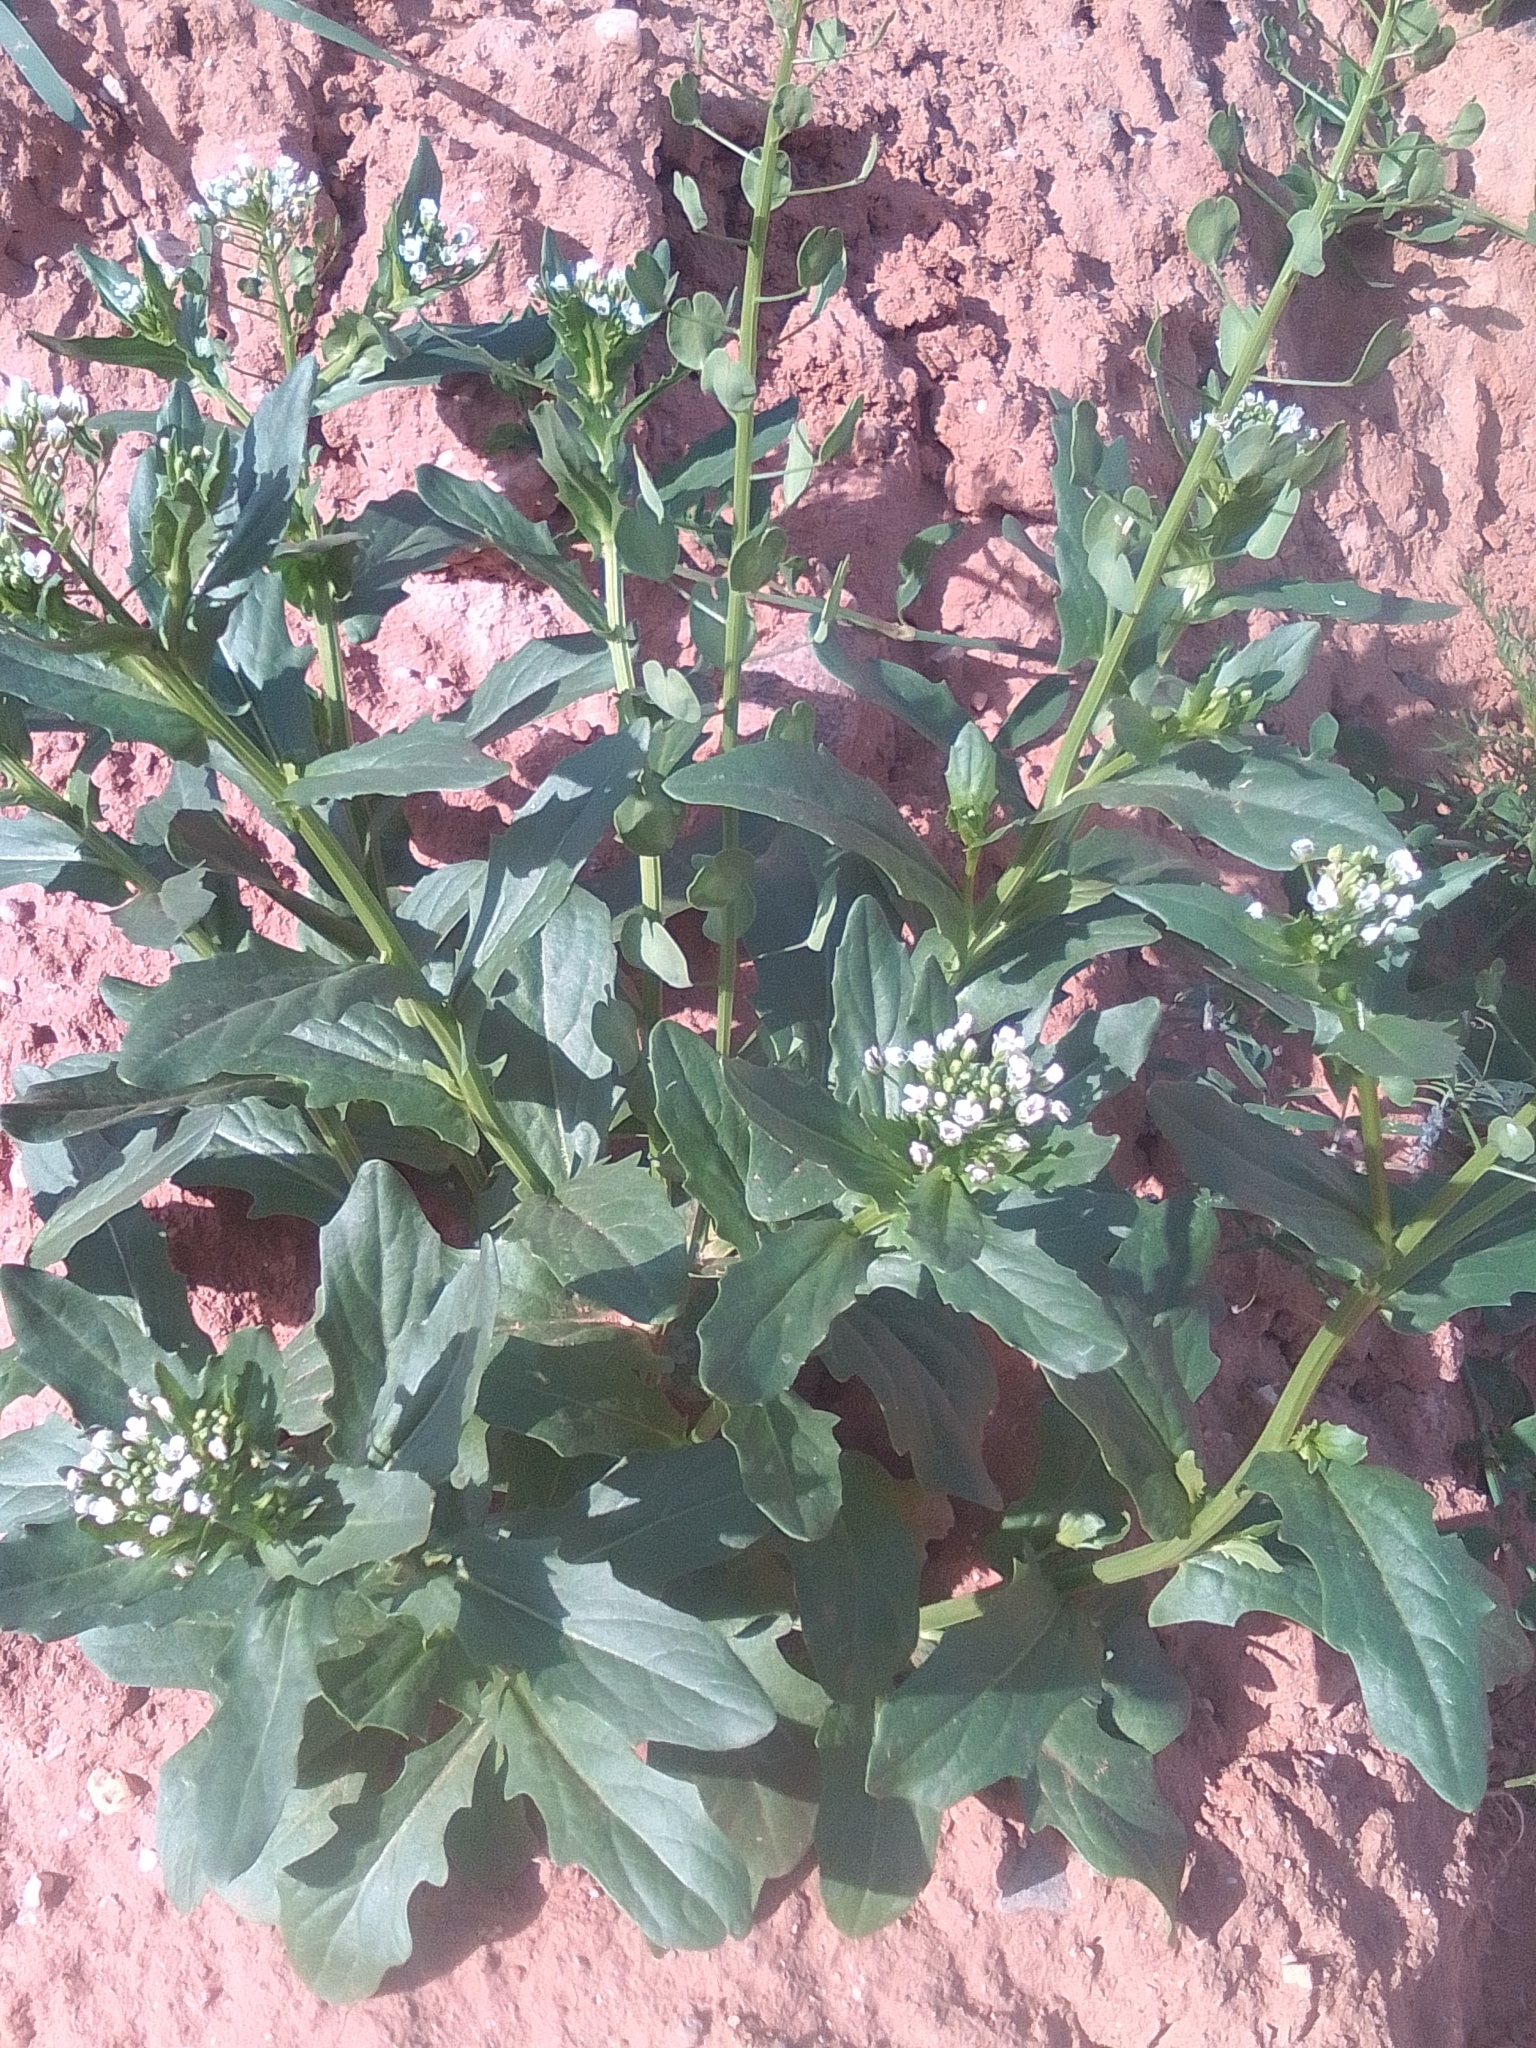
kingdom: Plantae
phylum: Tracheophyta
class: Magnoliopsida
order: Brassicales
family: Brassicaceae
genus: Thlaspi
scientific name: Thlaspi arvense
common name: Field pennycress
